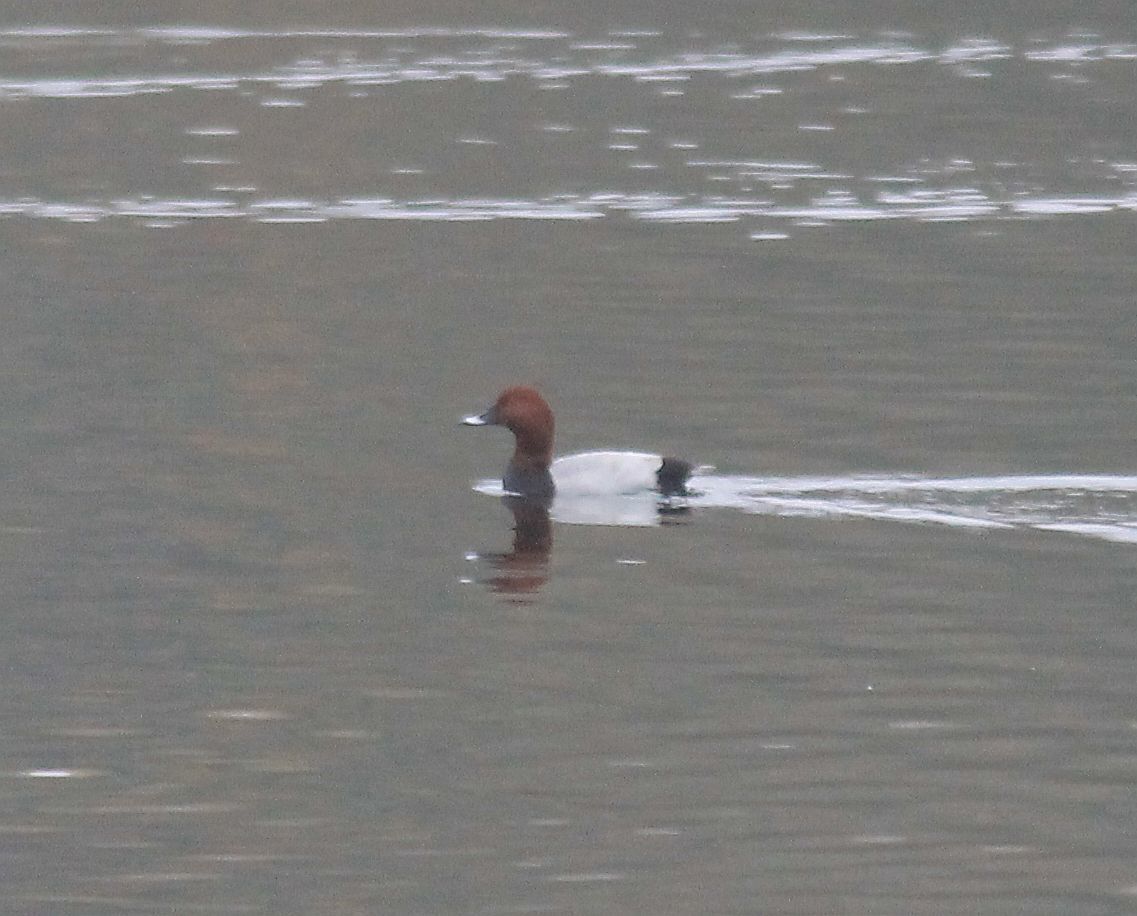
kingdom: Animalia
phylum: Chordata
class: Aves
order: Anseriformes
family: Anatidae
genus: Aythya
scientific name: Aythya ferina
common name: Common pochard
